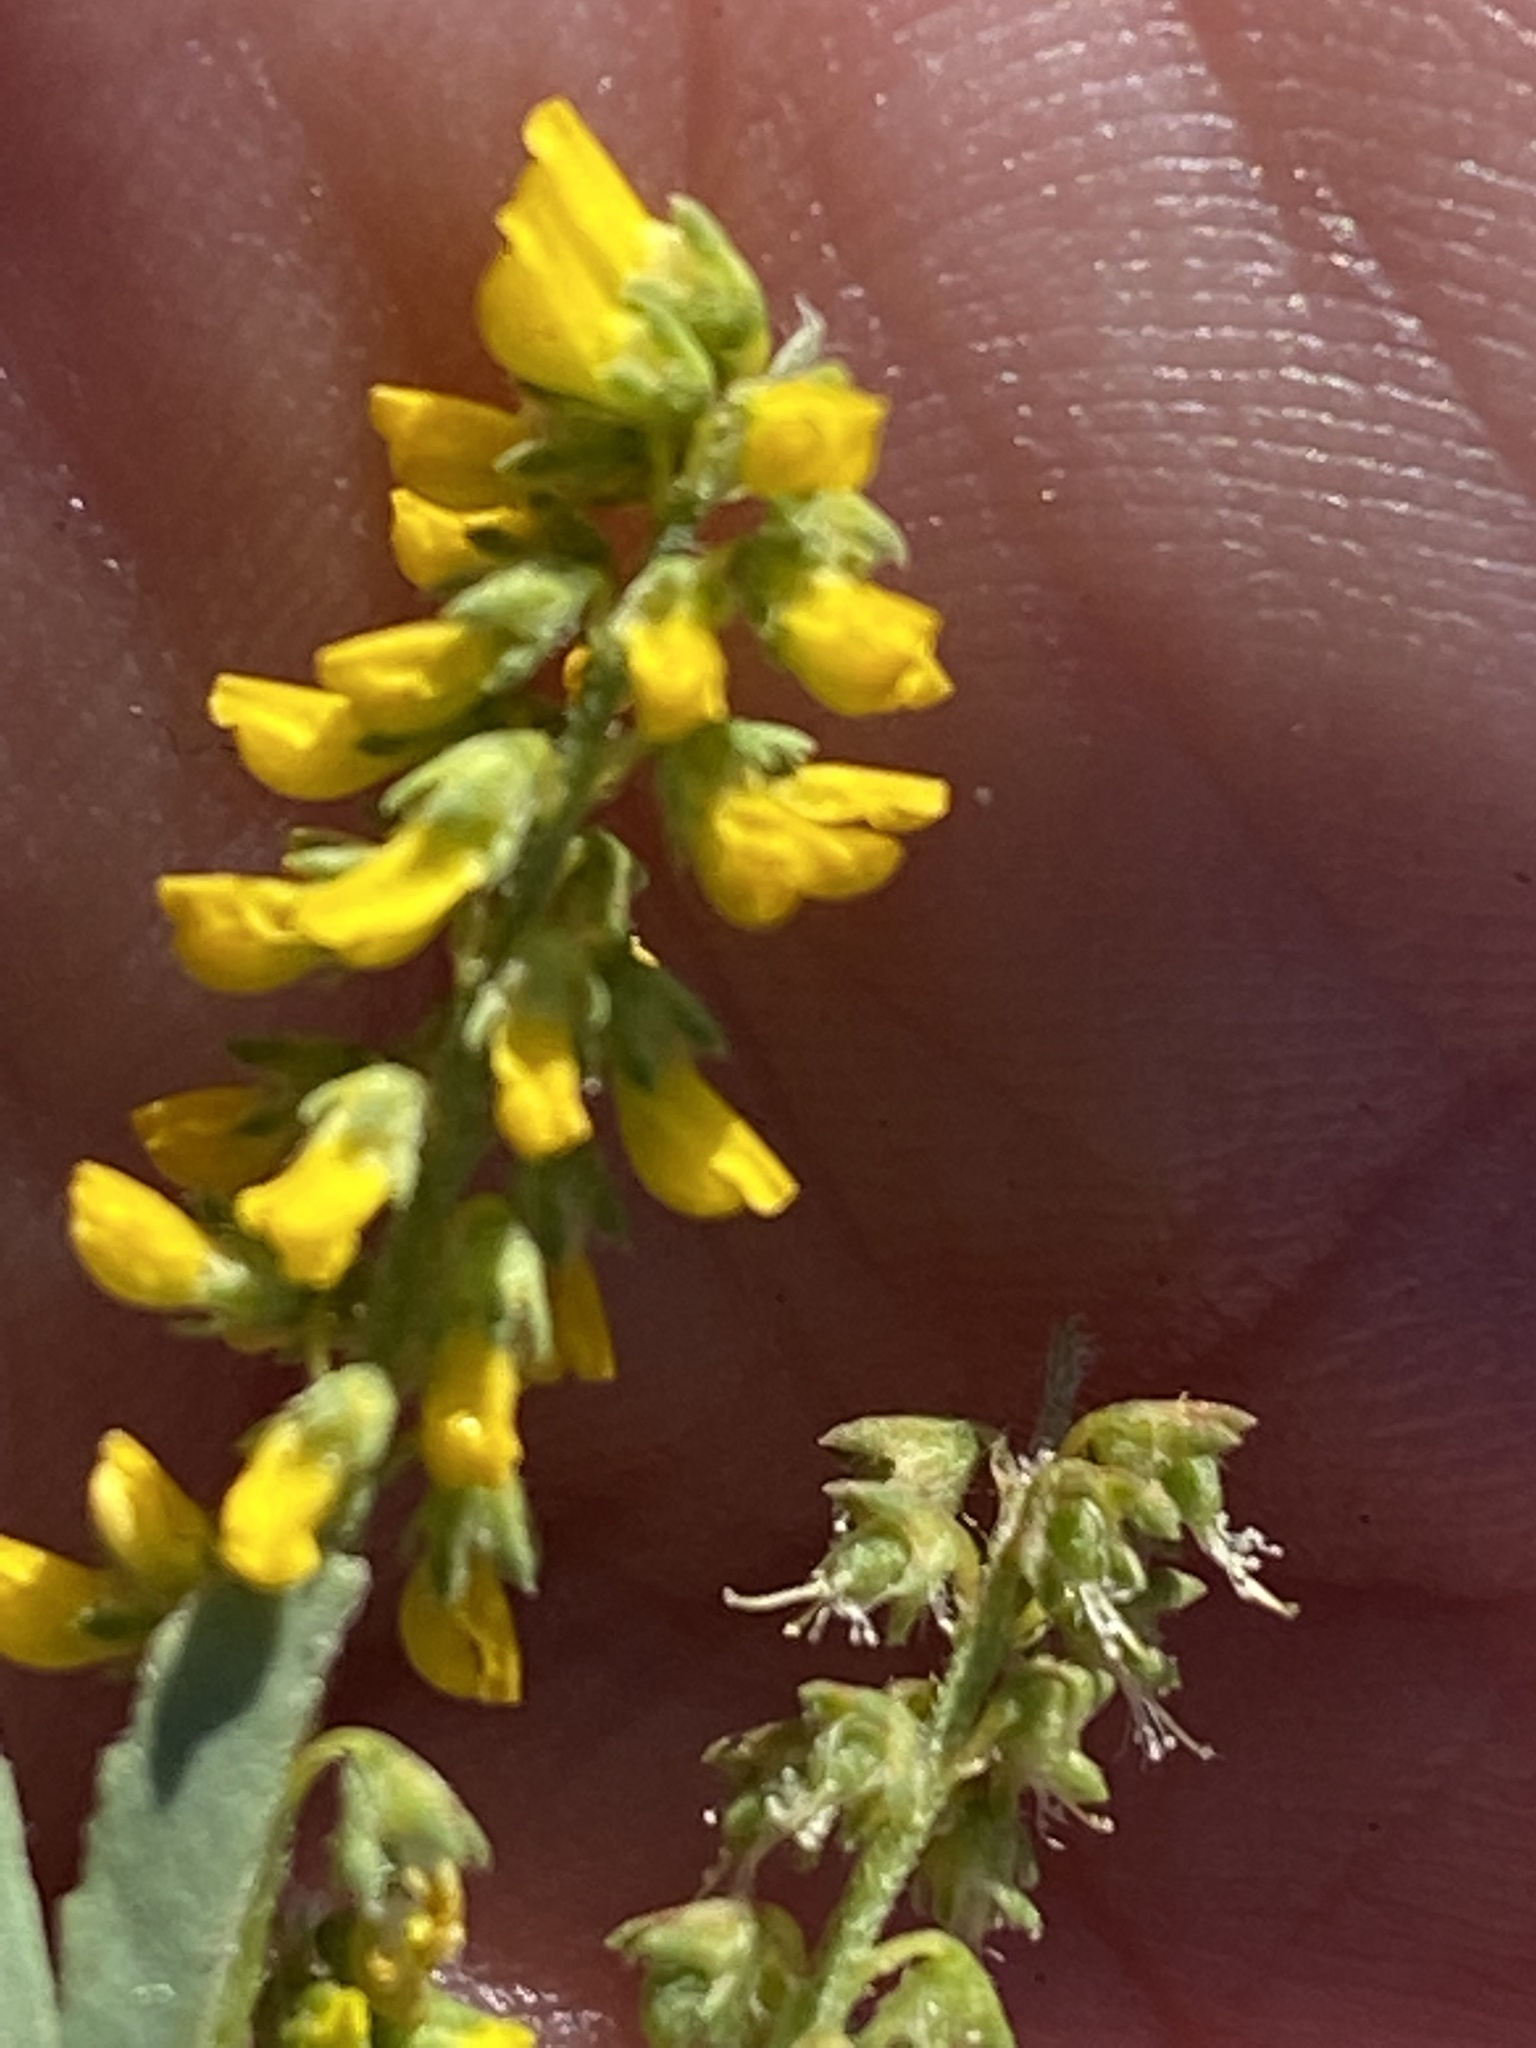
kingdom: Plantae
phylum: Tracheophyta
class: Magnoliopsida
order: Fabales
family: Fabaceae
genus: Melilotus
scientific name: Melilotus indicus
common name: Small melilot
